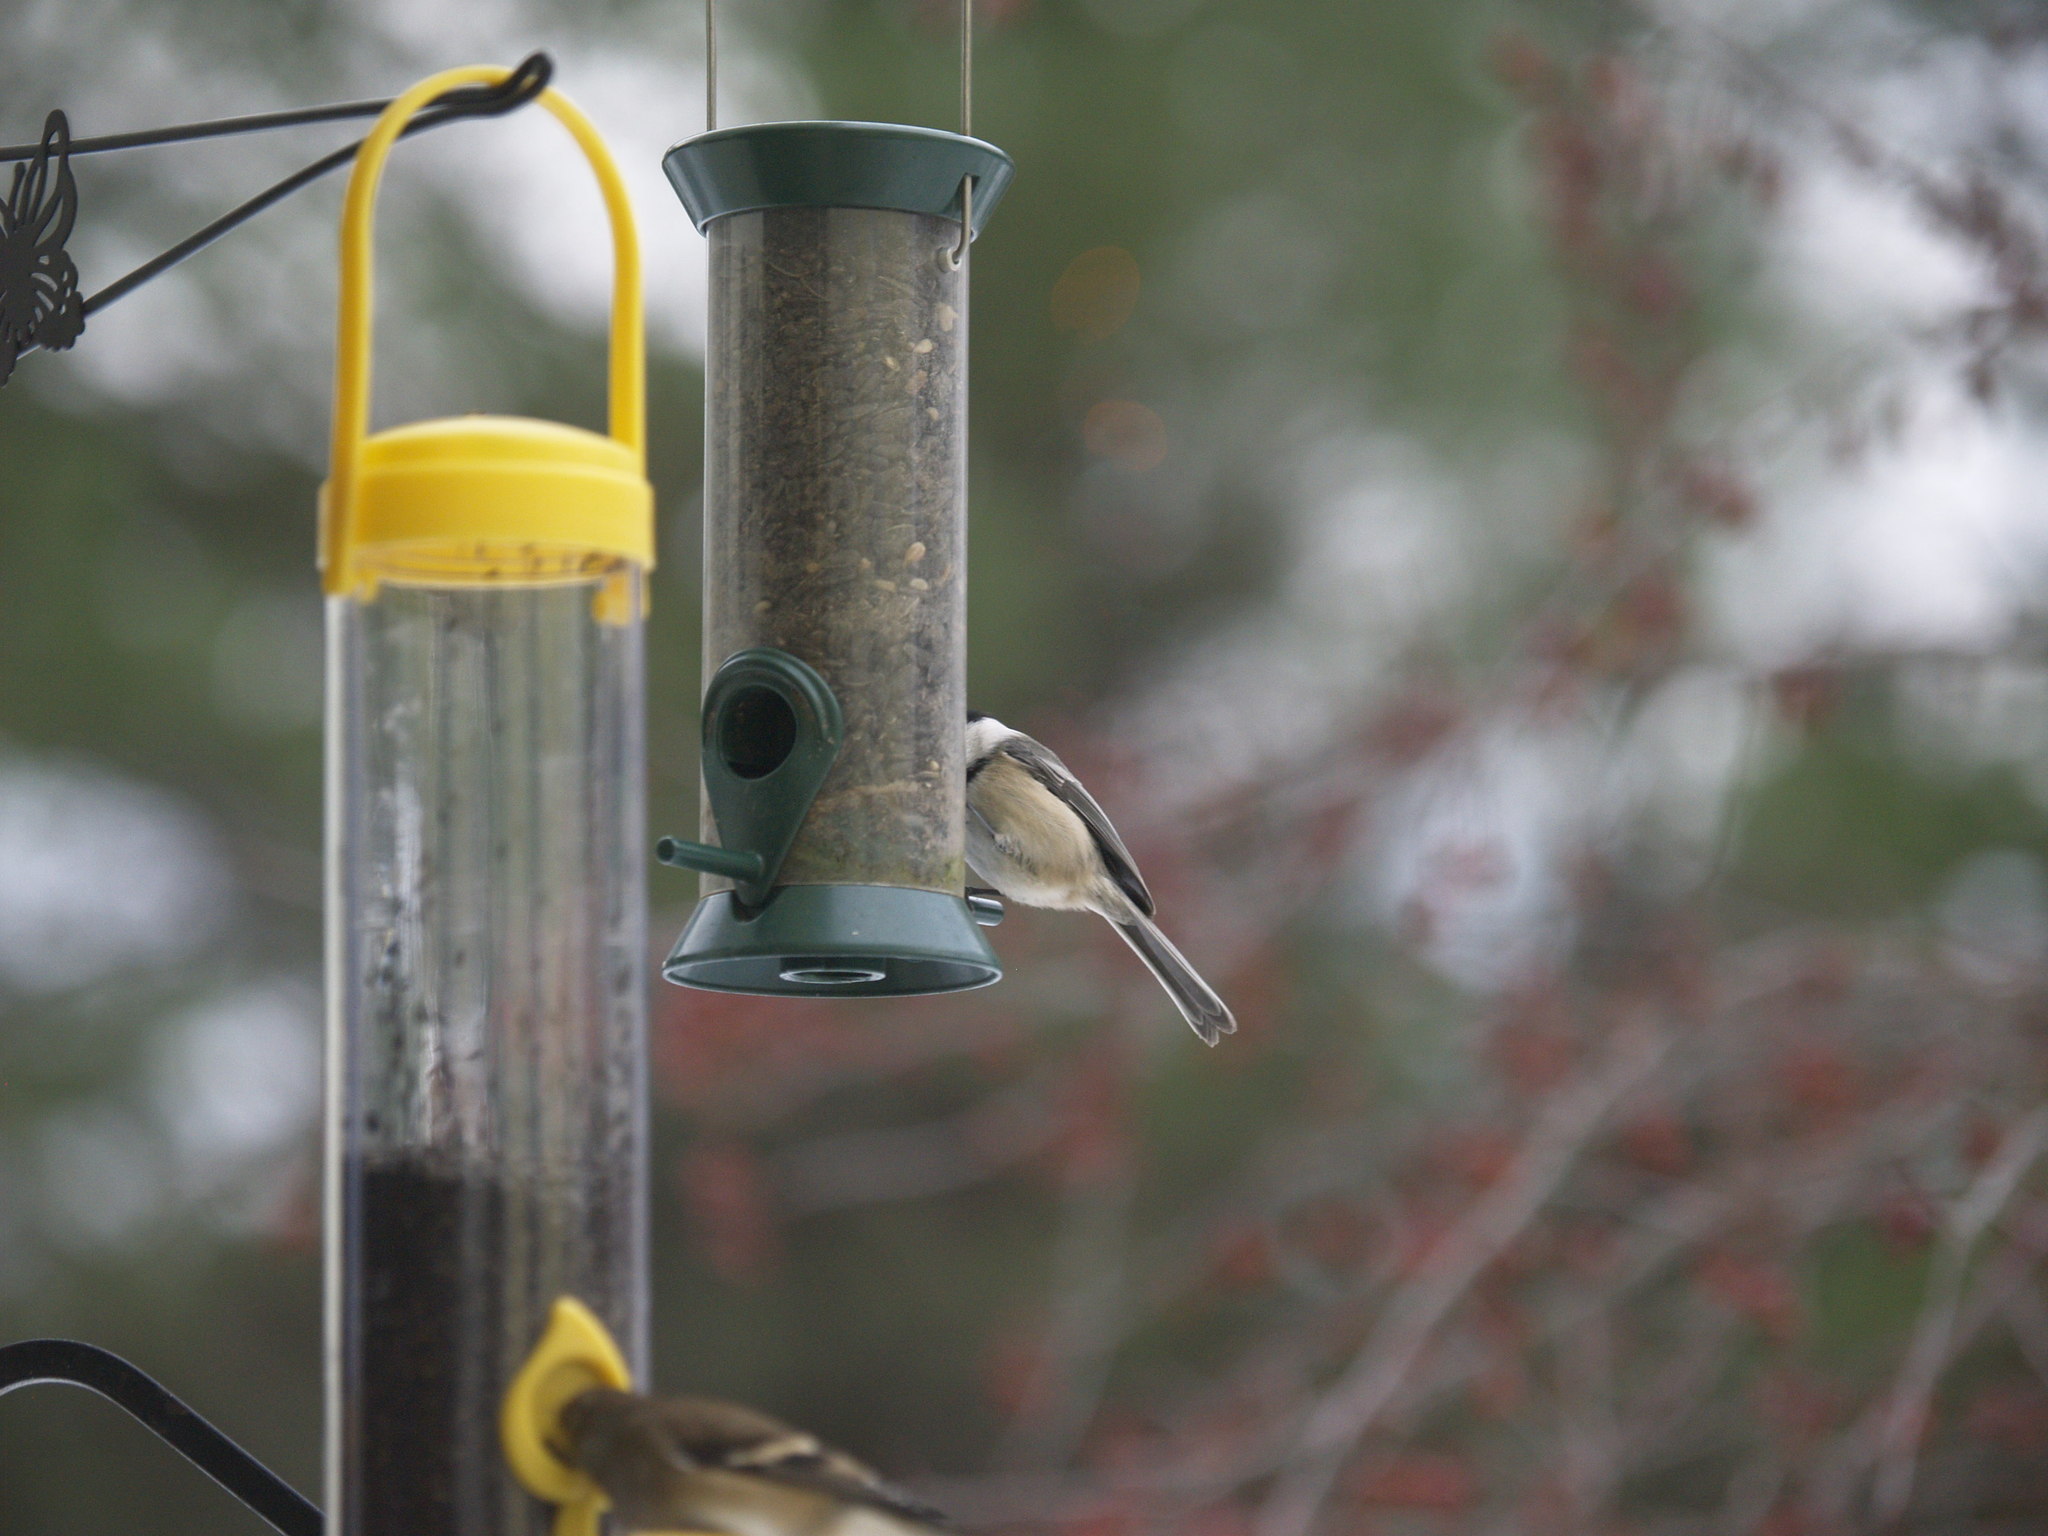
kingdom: Animalia
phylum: Chordata
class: Aves
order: Passeriformes
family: Paridae
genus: Poecile
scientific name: Poecile atricapillus
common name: Black-capped chickadee
